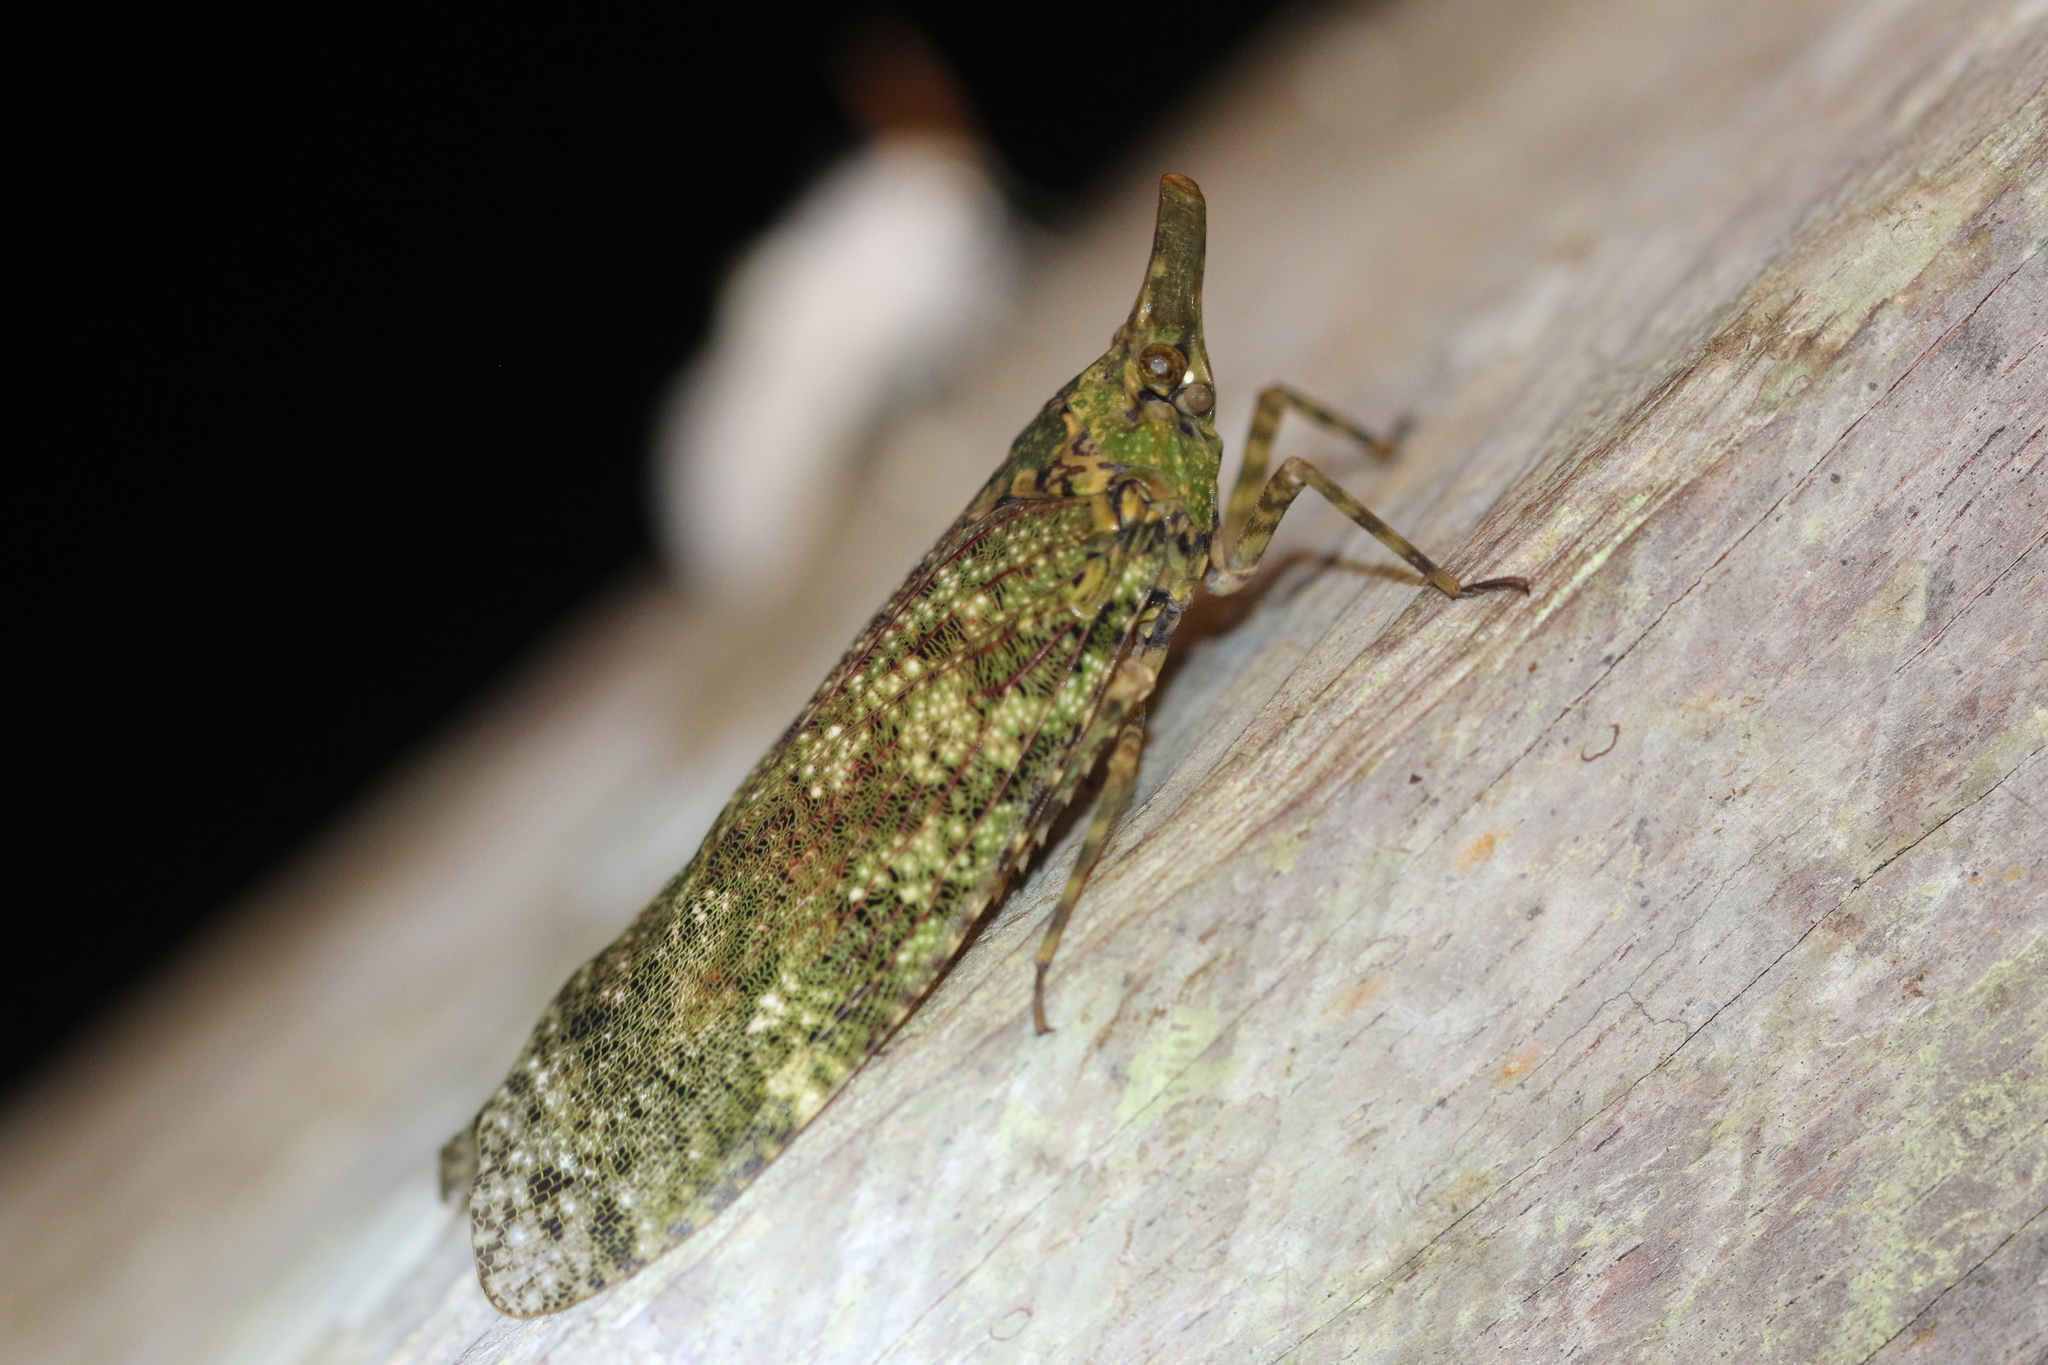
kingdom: Animalia
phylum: Arthropoda
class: Insecta
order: Hemiptera
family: Fulgoridae
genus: Diareusa
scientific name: Diareusa imitatrix
